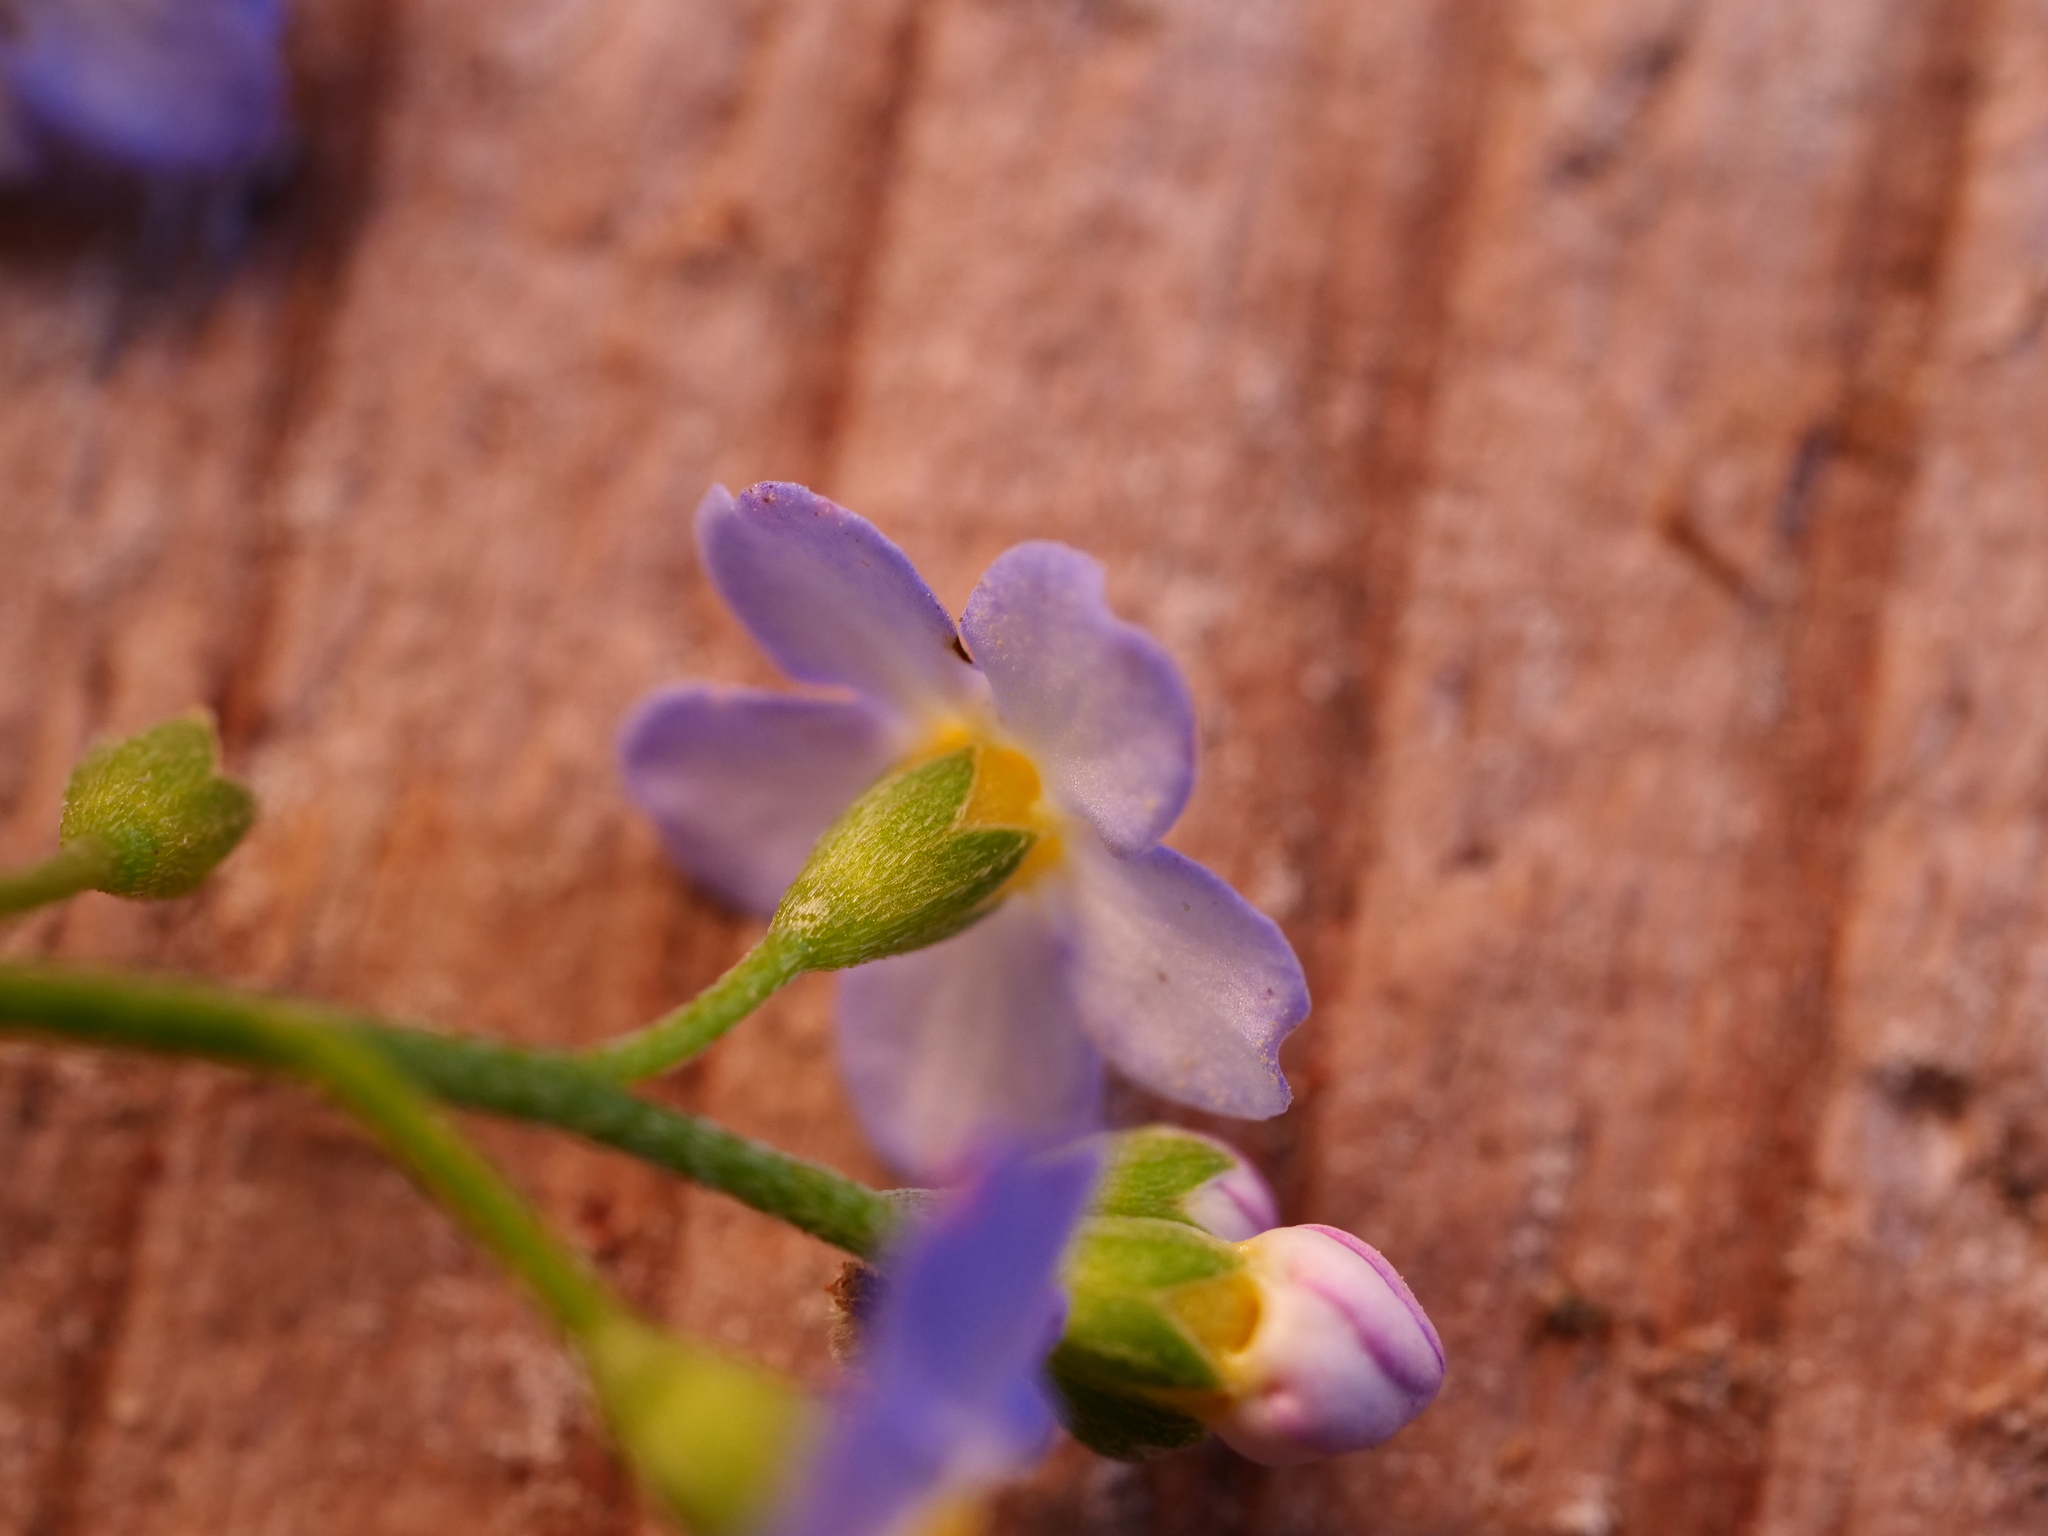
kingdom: Plantae
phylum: Tracheophyta
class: Magnoliopsida
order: Boraginales
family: Boraginaceae
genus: Myosotis
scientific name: Myosotis scorpioides
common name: Water forget-me-not
